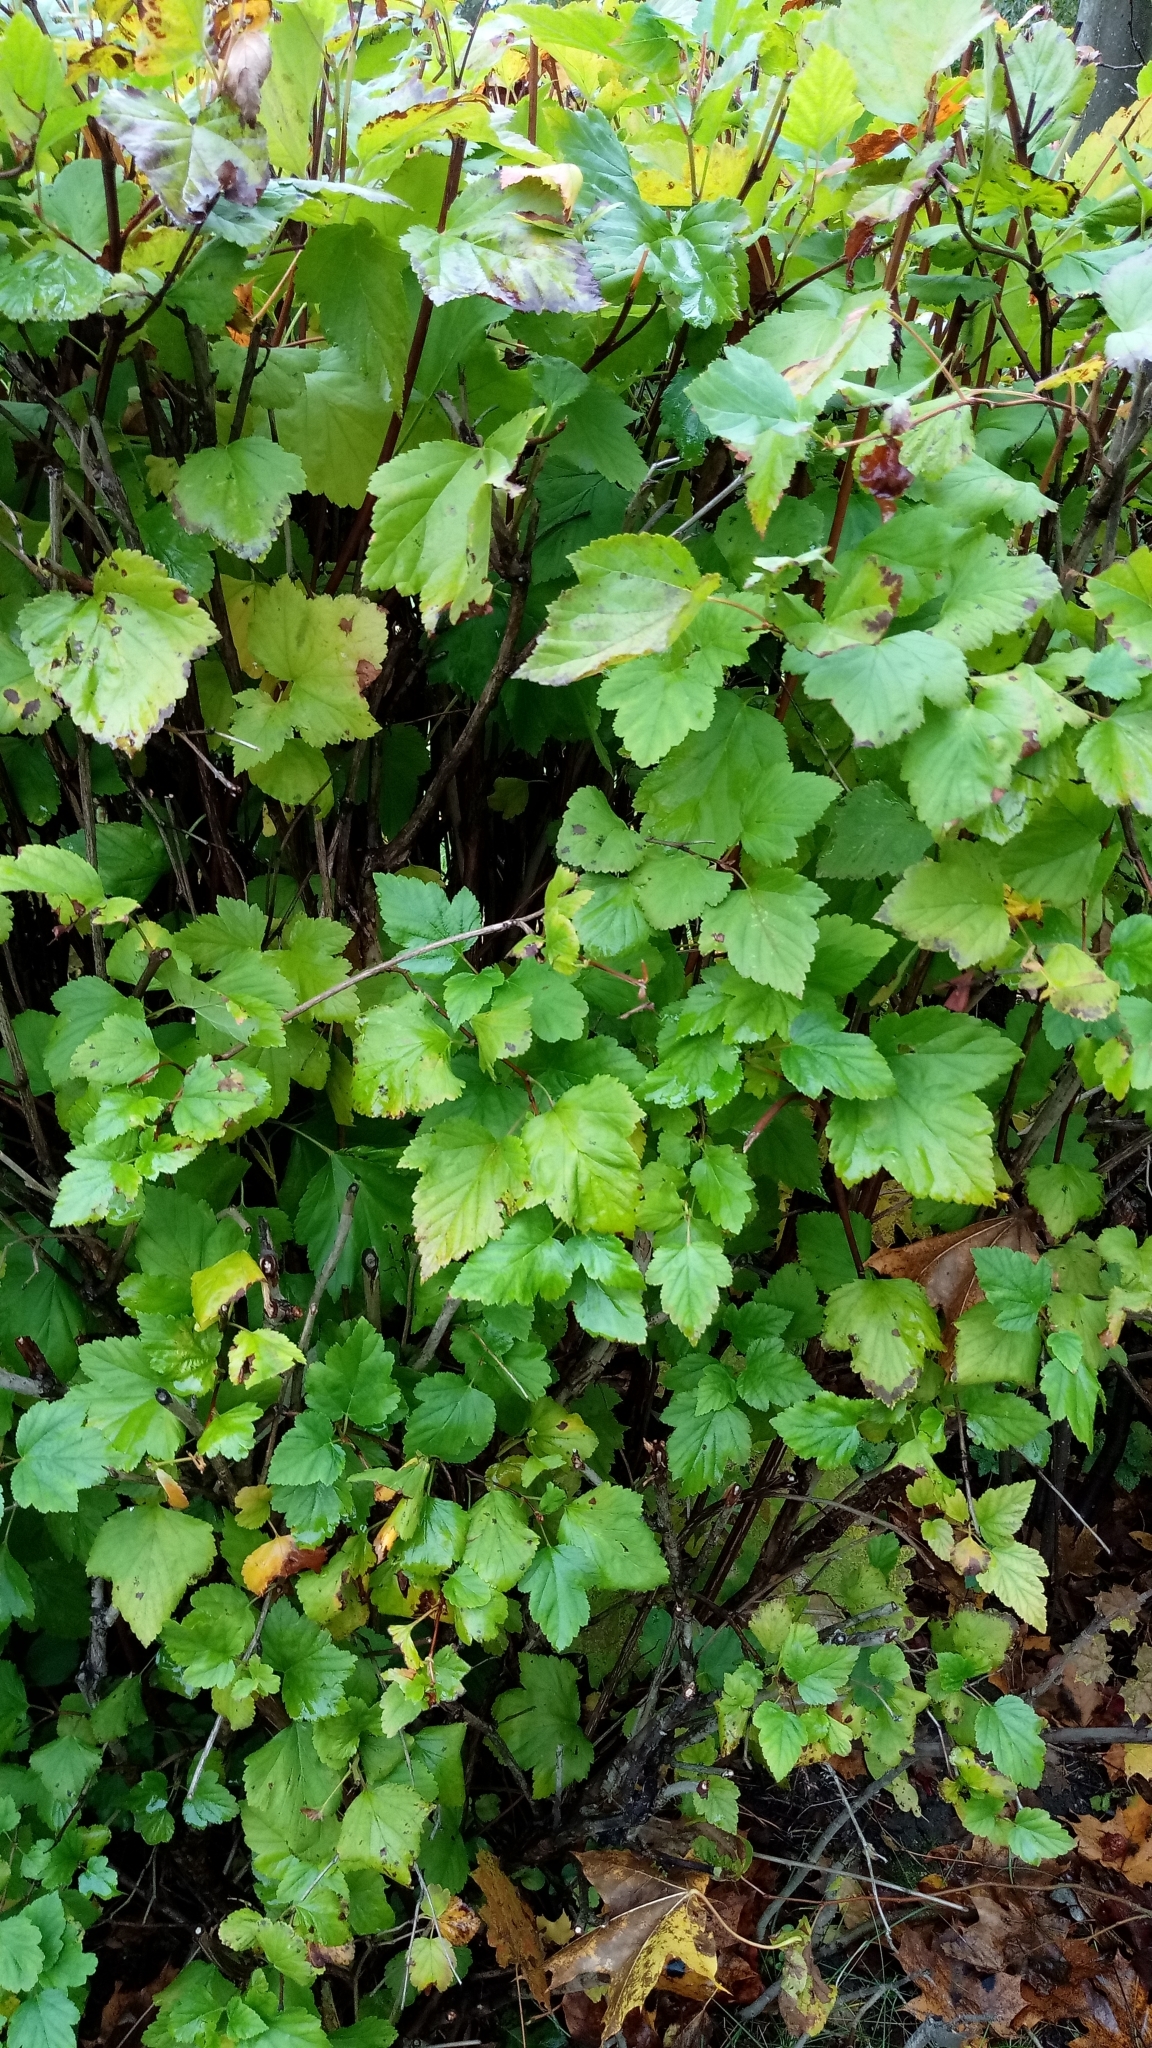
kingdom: Plantae
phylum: Tracheophyta
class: Magnoliopsida
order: Rosales
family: Rosaceae
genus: Physocarpus
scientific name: Physocarpus opulifolius
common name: Ninebark
